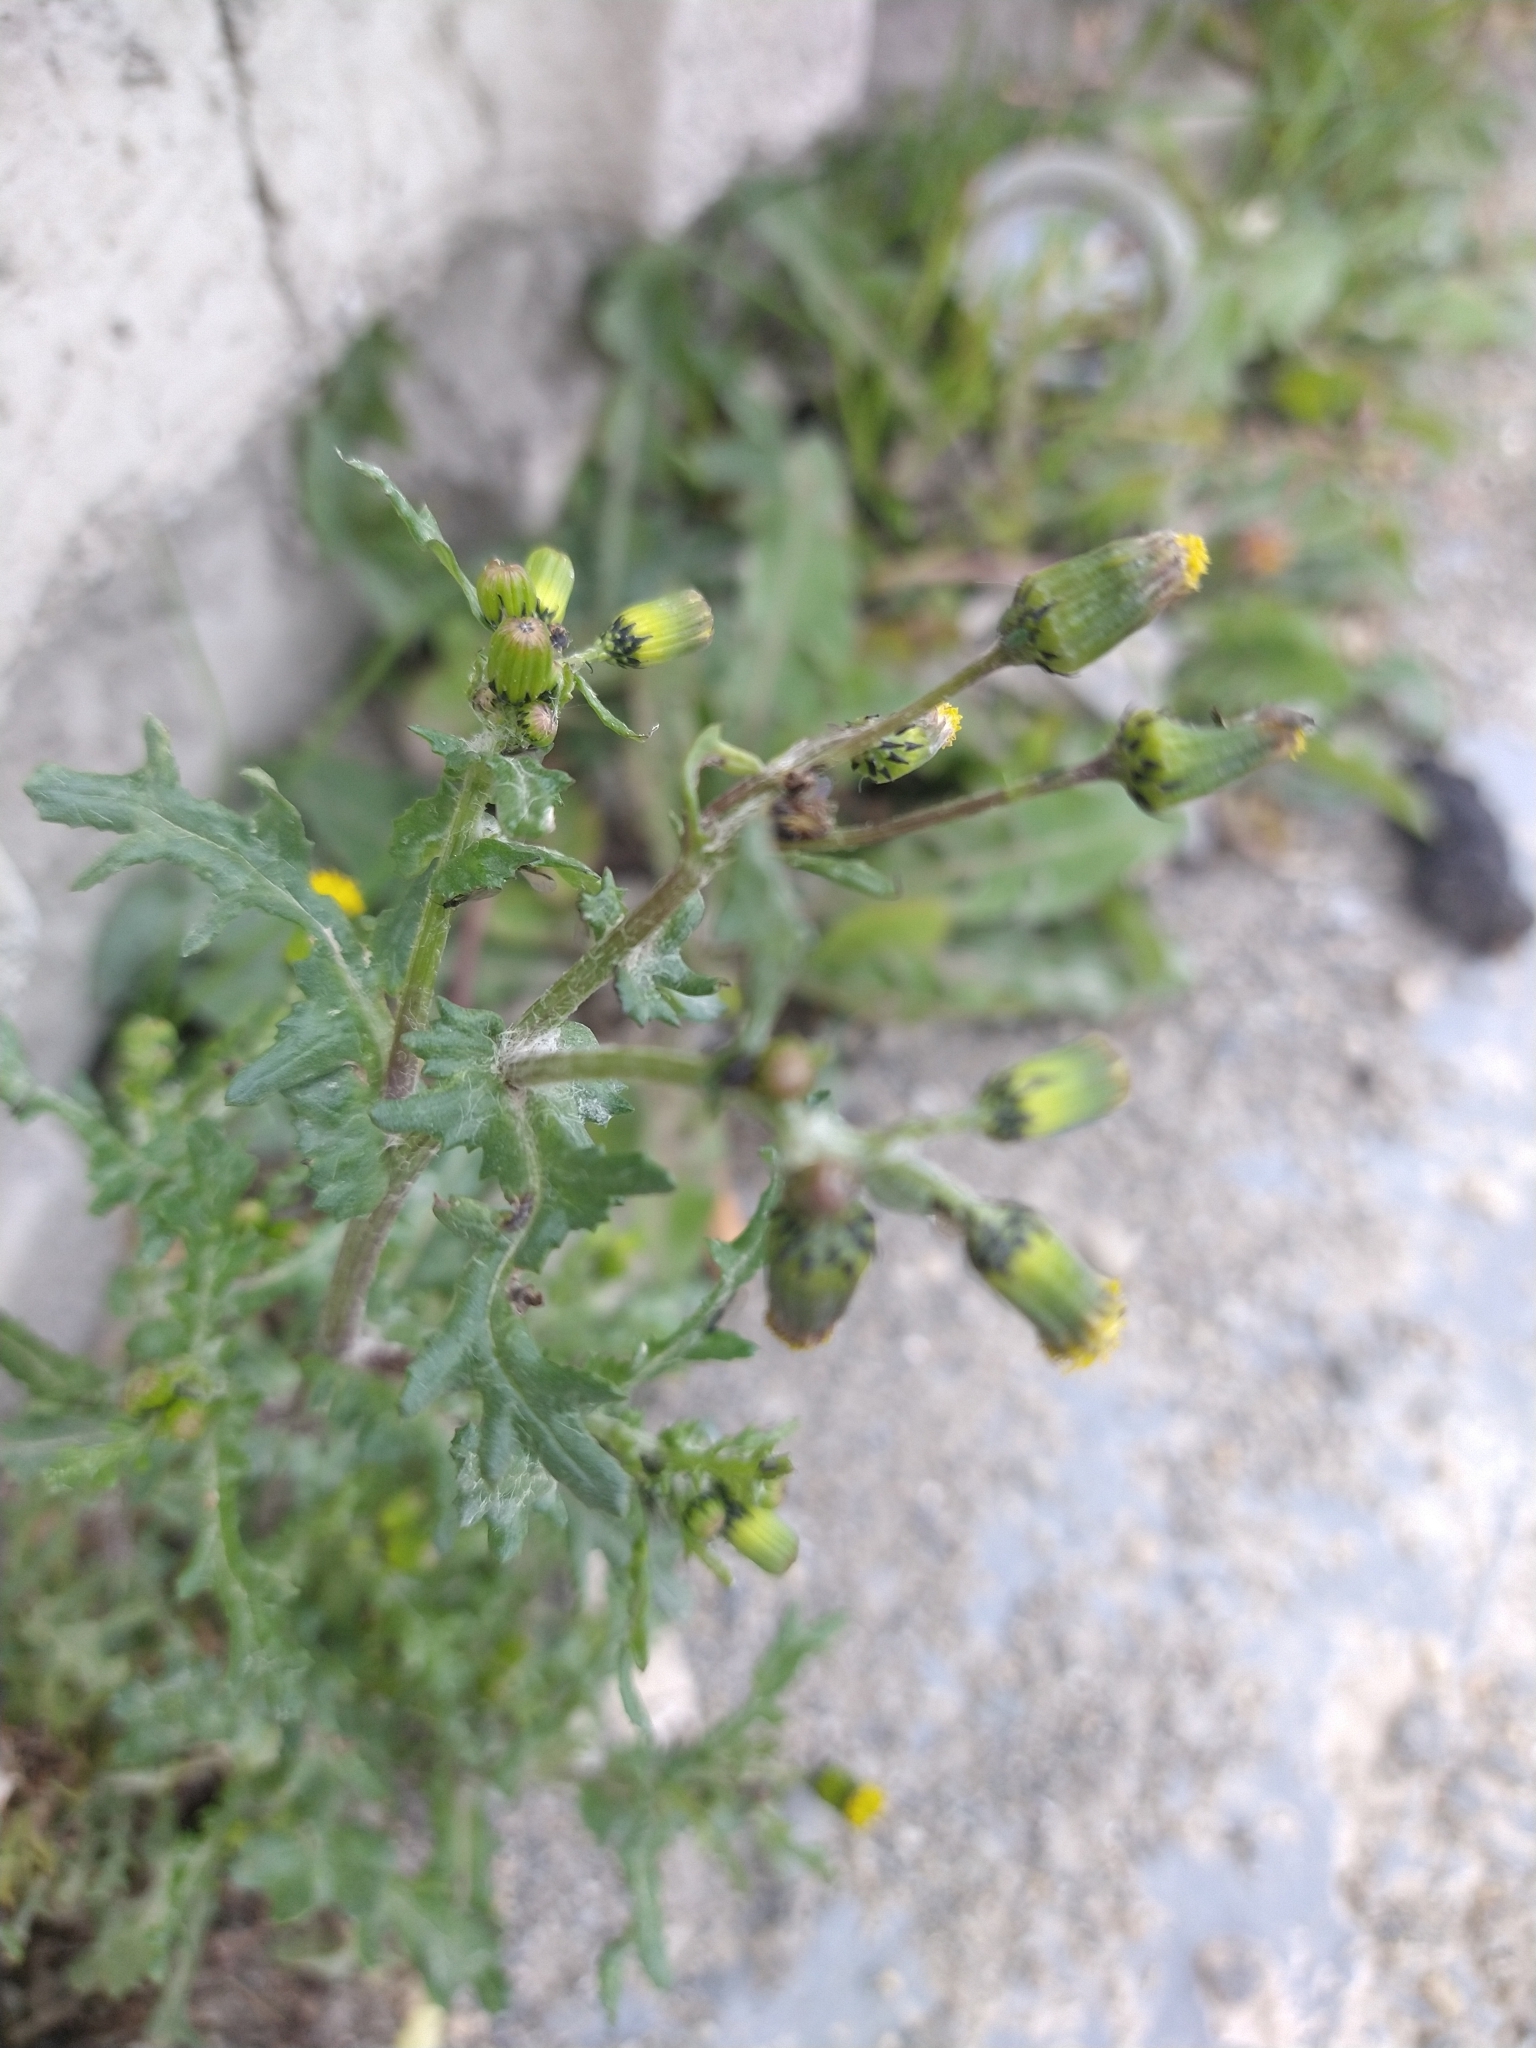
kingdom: Plantae
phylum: Tracheophyta
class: Magnoliopsida
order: Asterales
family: Asteraceae
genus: Senecio
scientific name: Senecio vulgaris
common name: Old-man-in-the-spring
